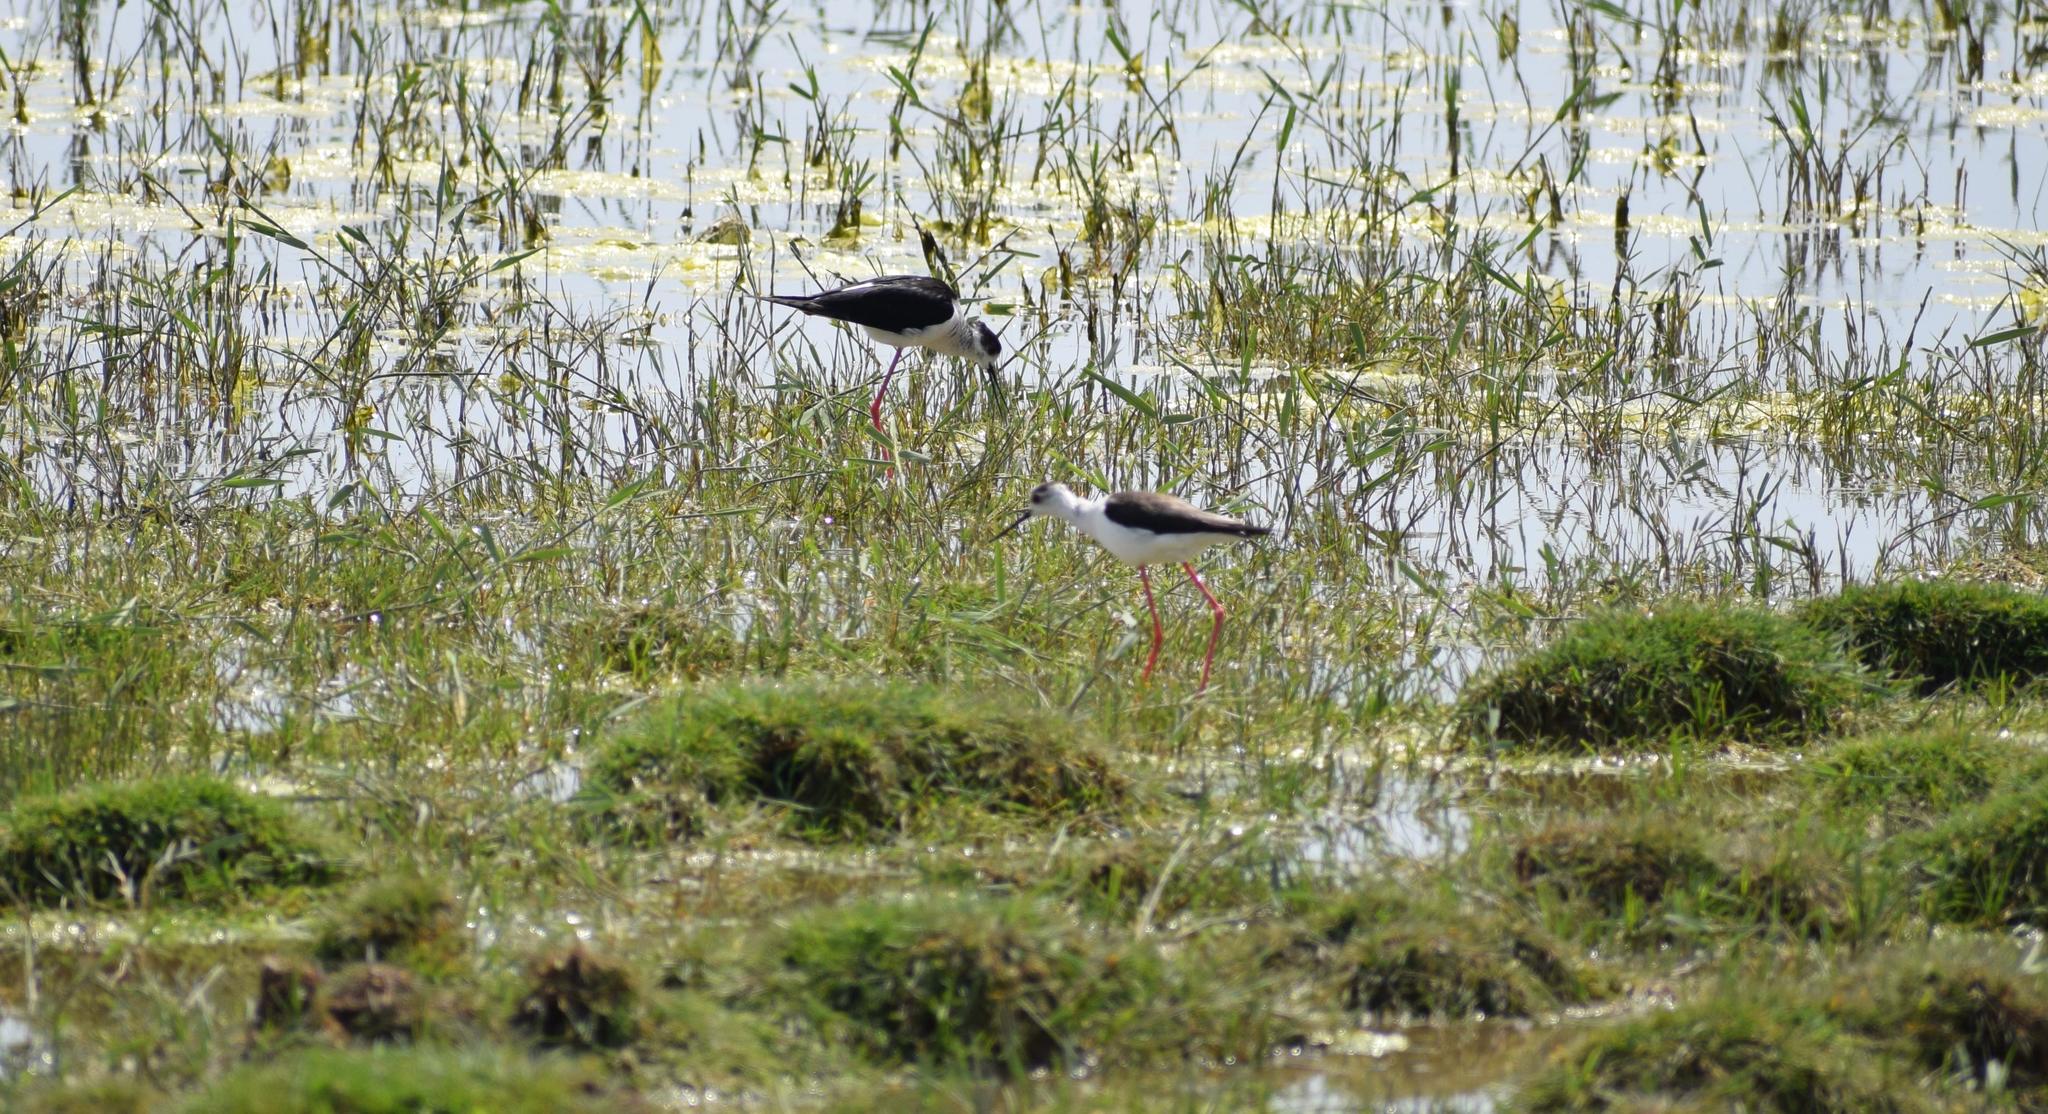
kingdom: Animalia
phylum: Chordata
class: Aves
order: Charadriiformes
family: Recurvirostridae
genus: Himantopus
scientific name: Himantopus himantopus
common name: Black-winged stilt
